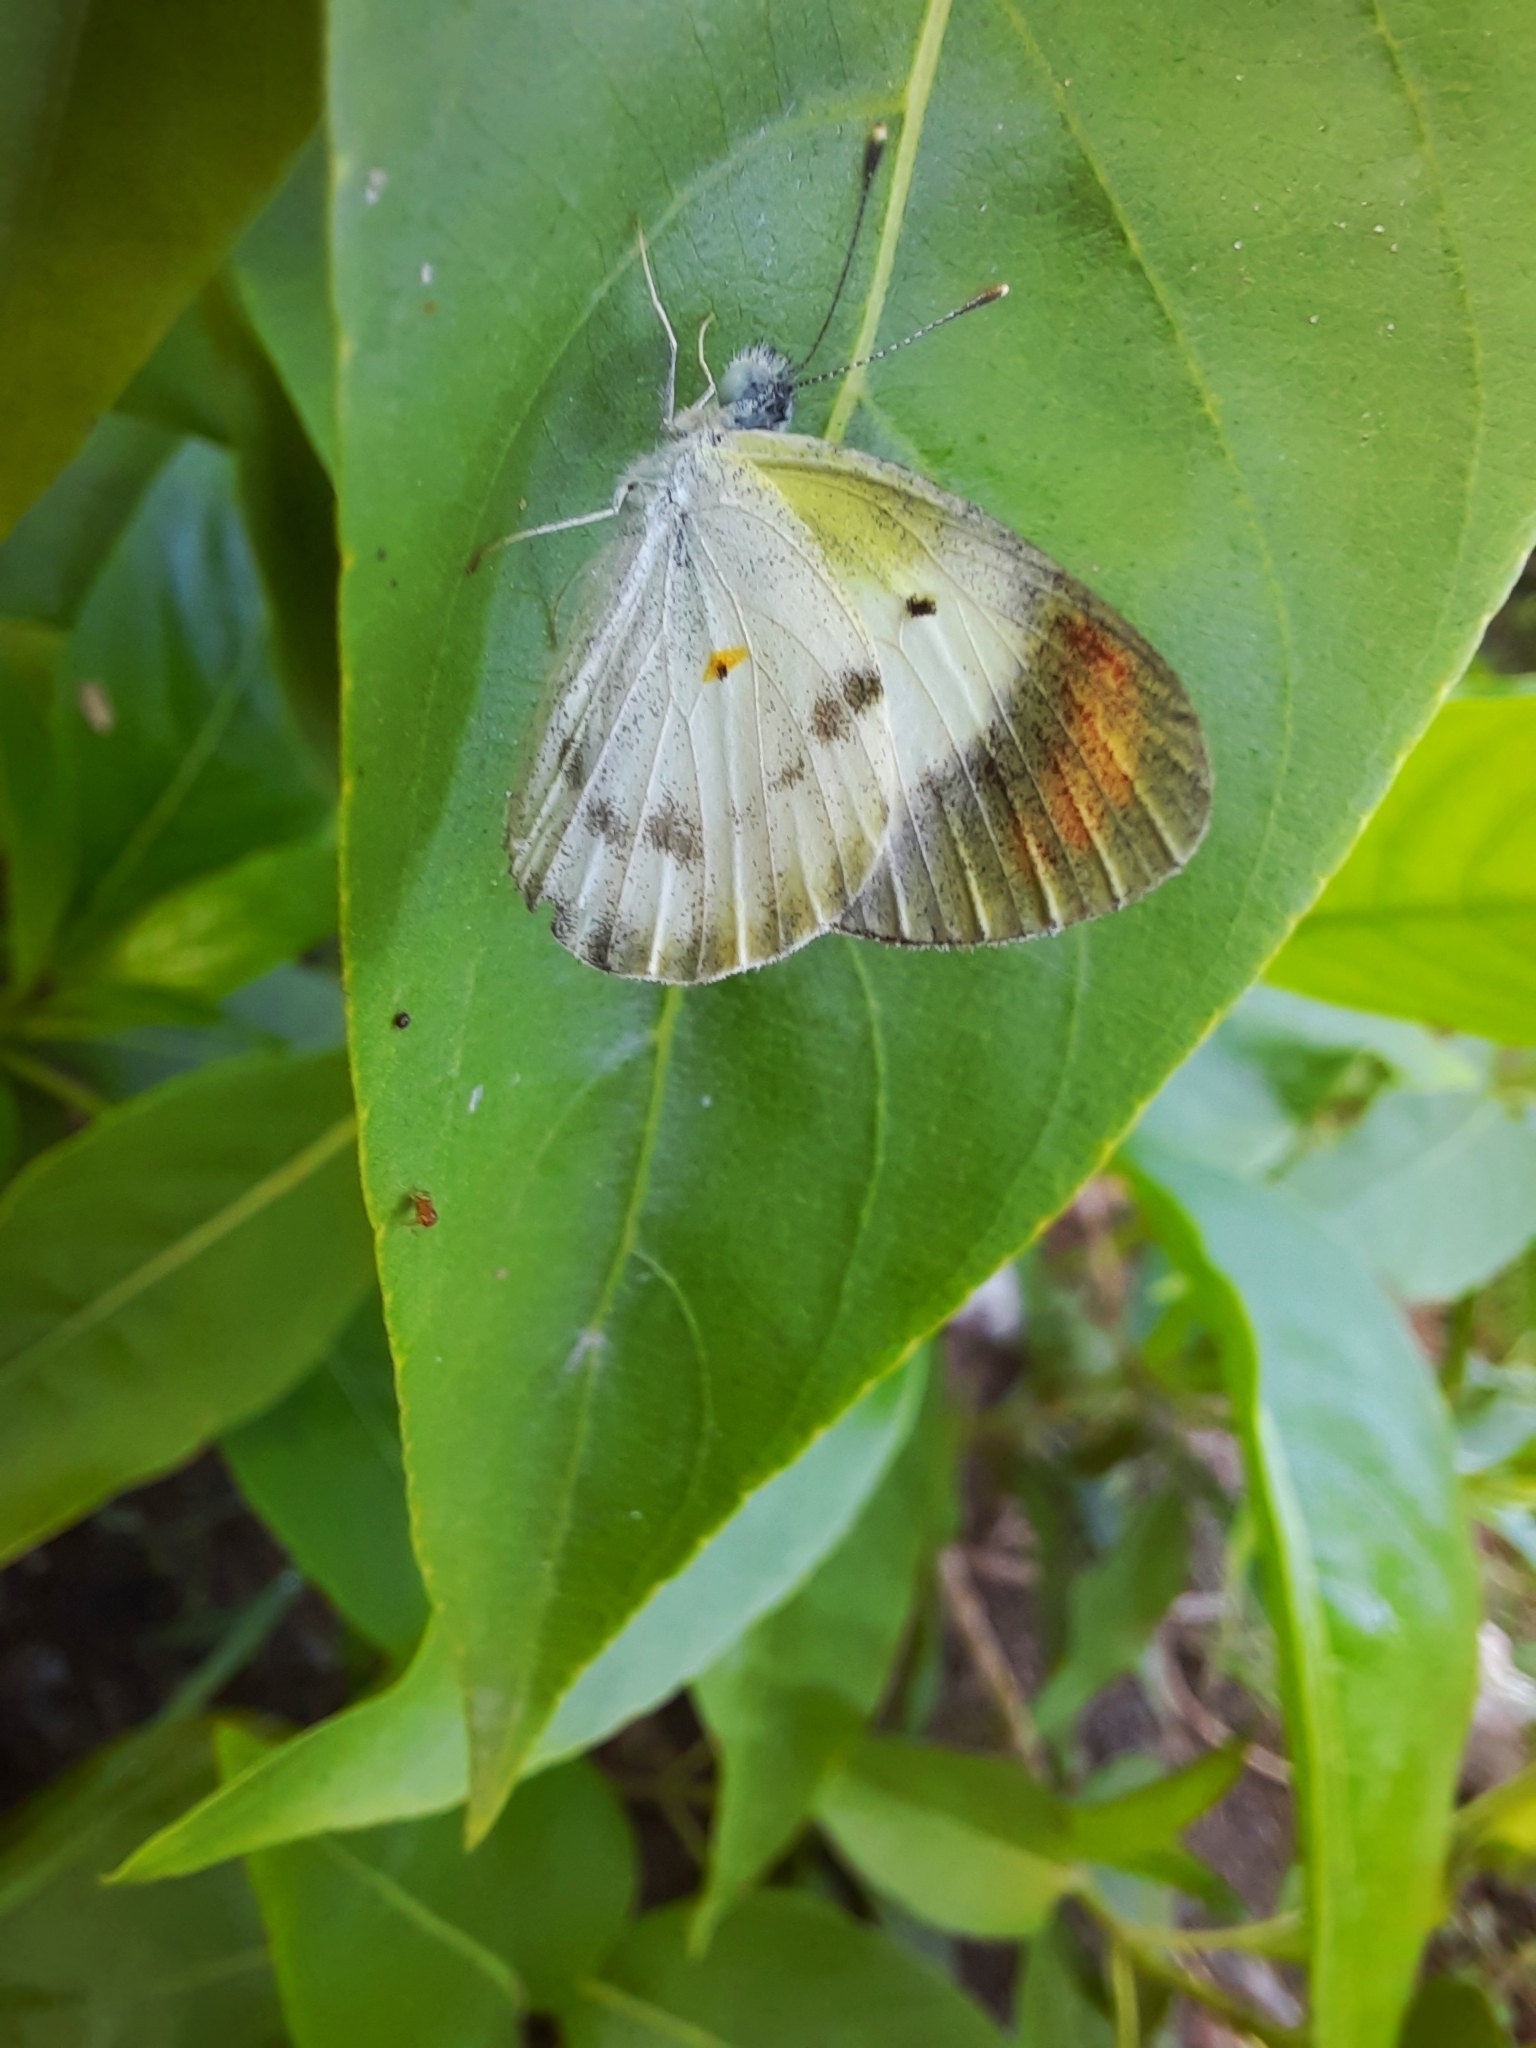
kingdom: Animalia
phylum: Arthropoda
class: Insecta
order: Lepidoptera
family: Pieridae
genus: Colotis
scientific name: Colotis etrida
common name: Little orange tip
